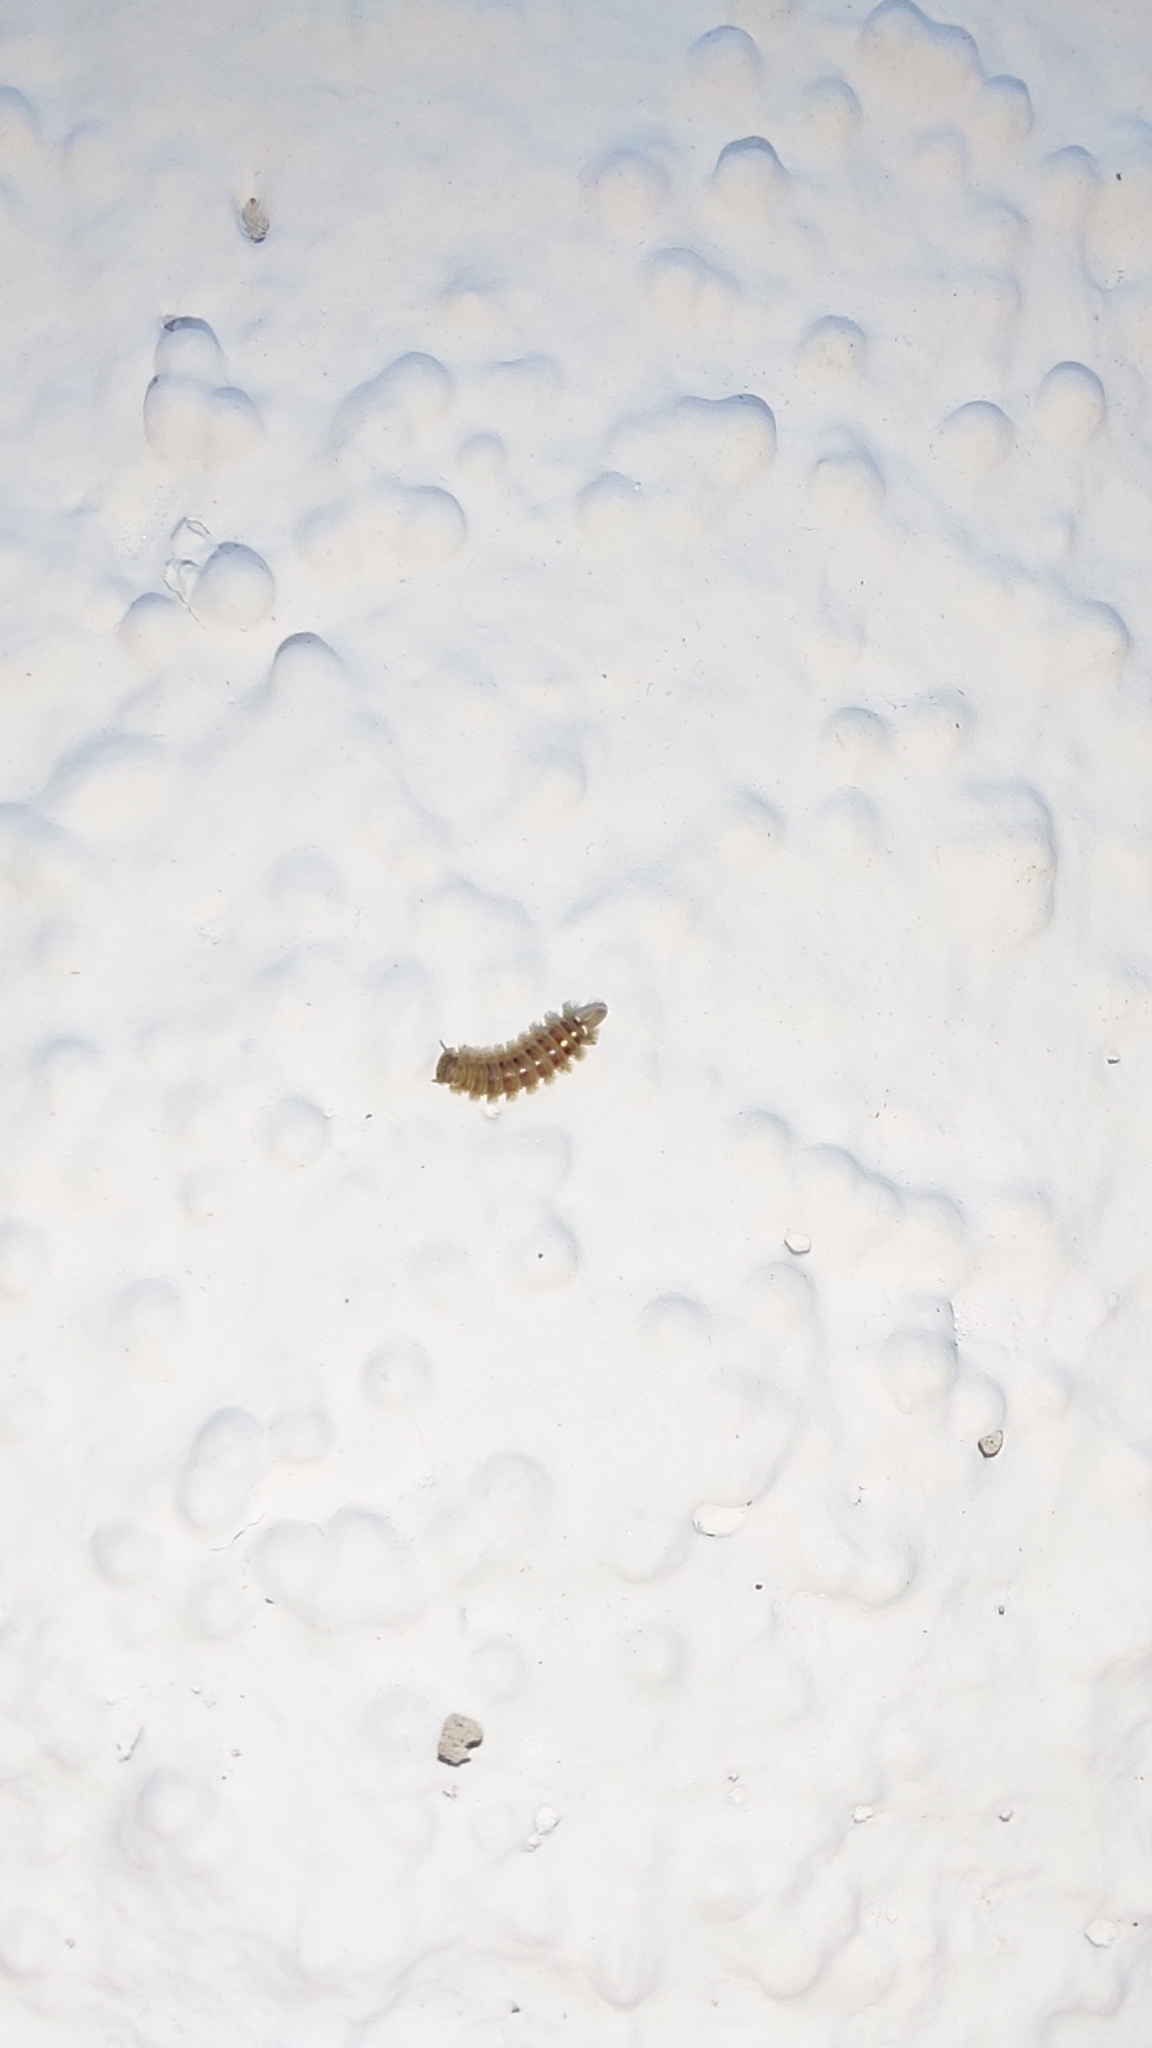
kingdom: Animalia
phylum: Arthropoda
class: Diplopoda
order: Polyxenida
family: Polyxenidae
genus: Polyxenus
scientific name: Polyxenus lagurus
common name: Bristly millipede
